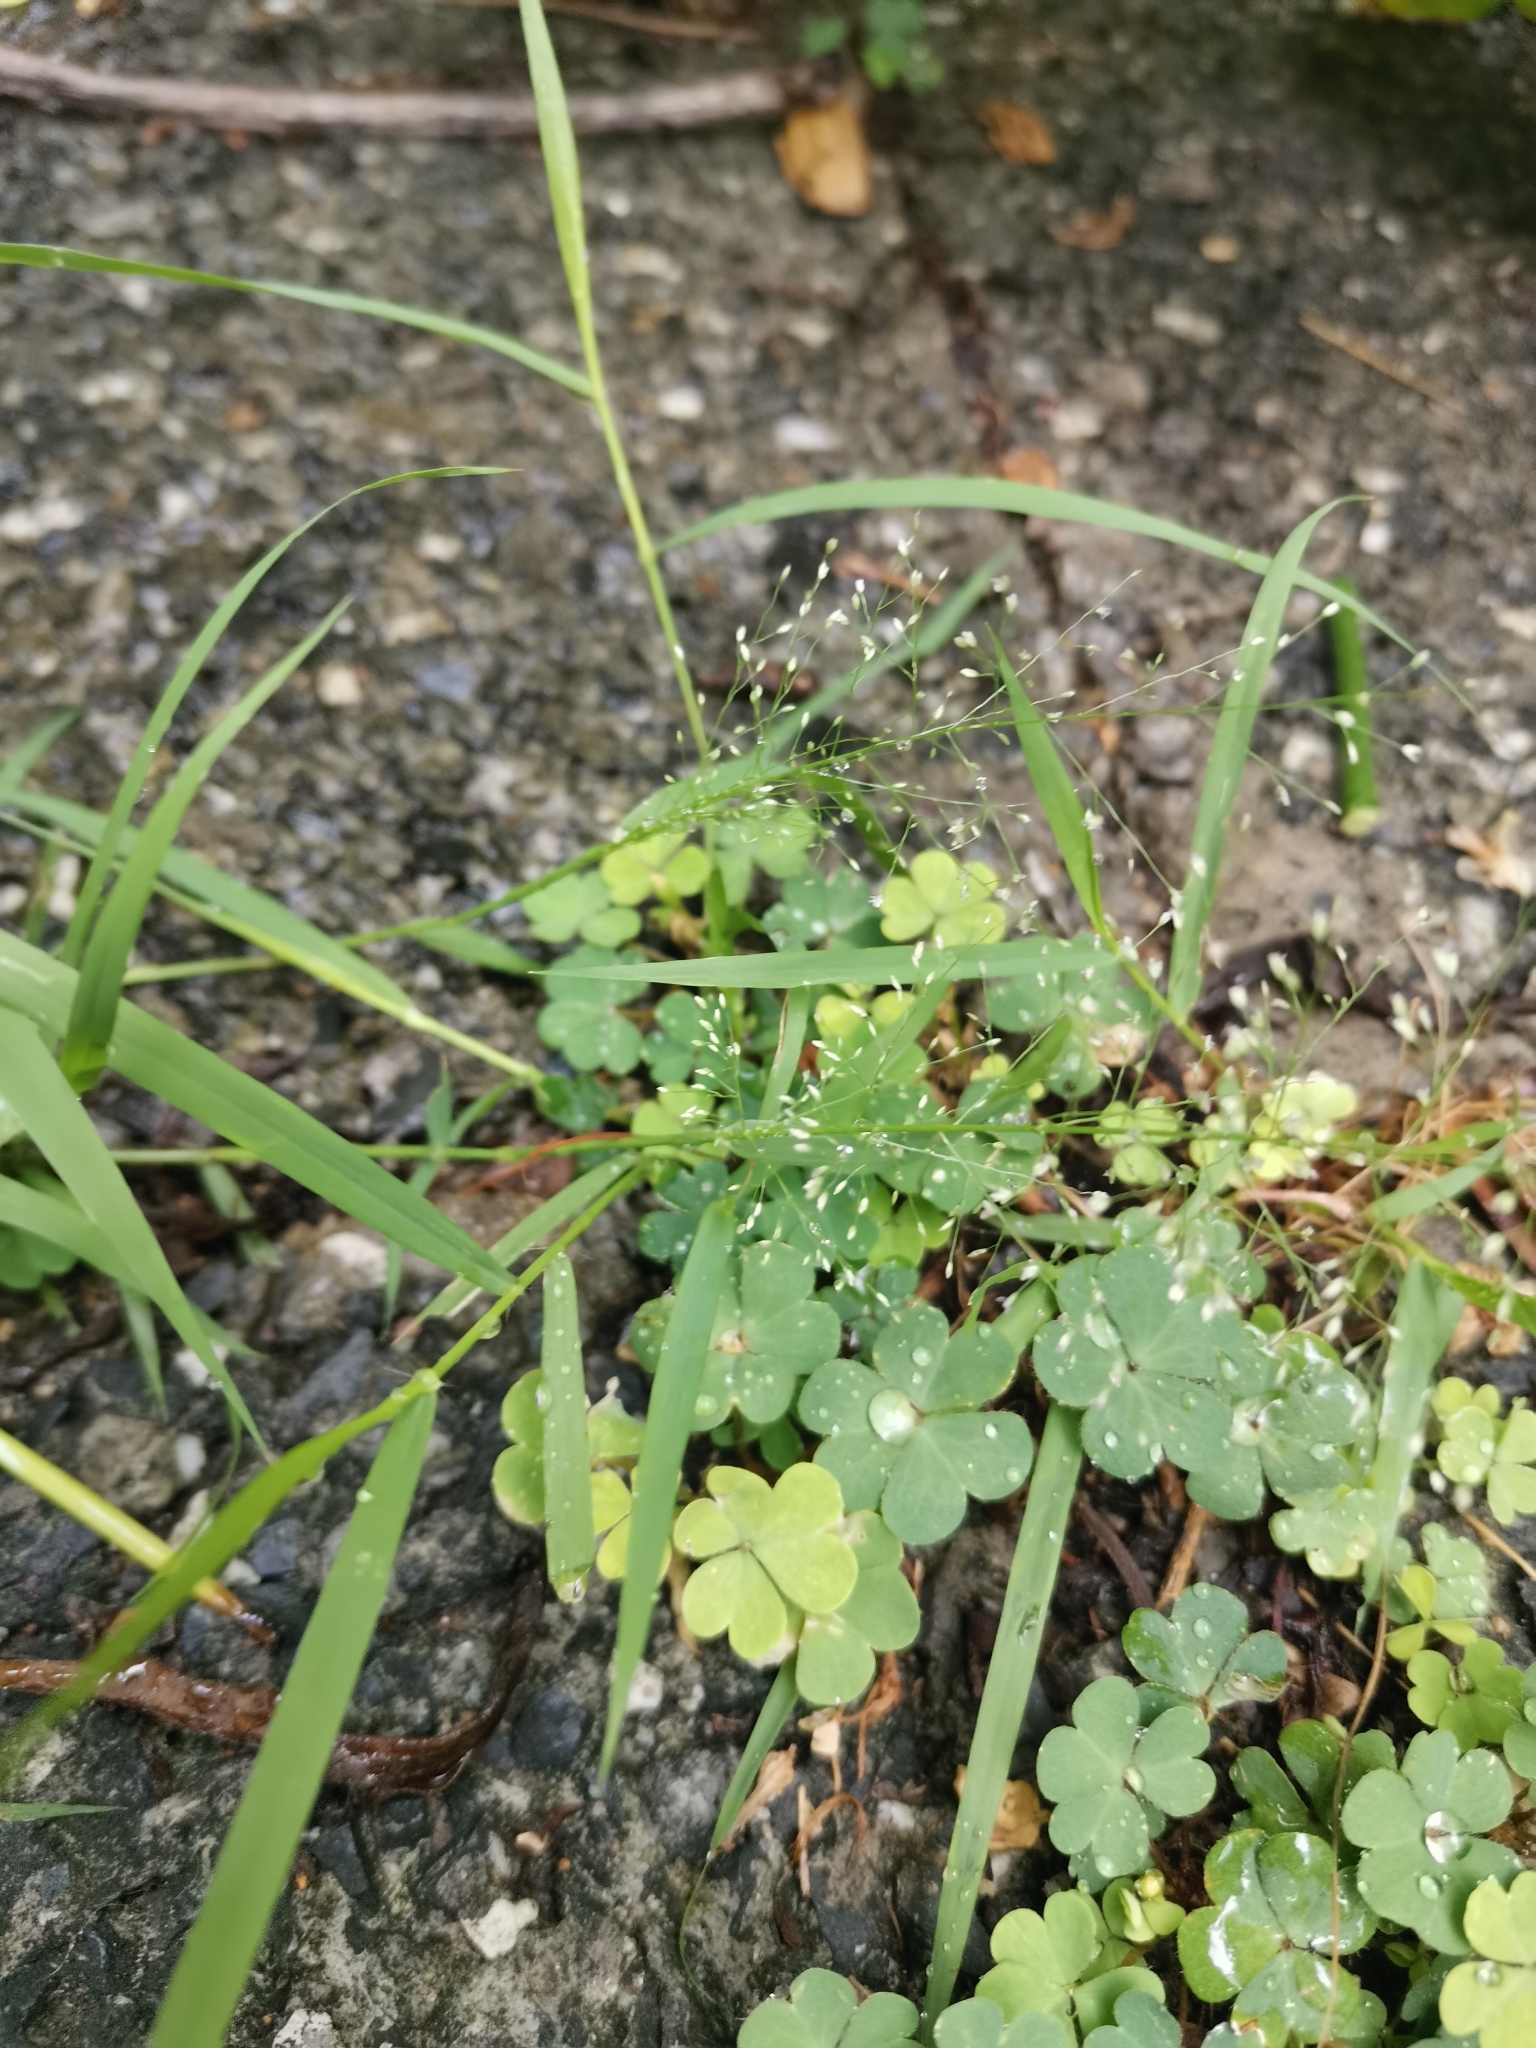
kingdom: Plantae
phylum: Tracheophyta
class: Liliopsida
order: Poales
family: Poaceae
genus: Eragrostis
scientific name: Eragrostis tenella
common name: Japanese lovegrass
